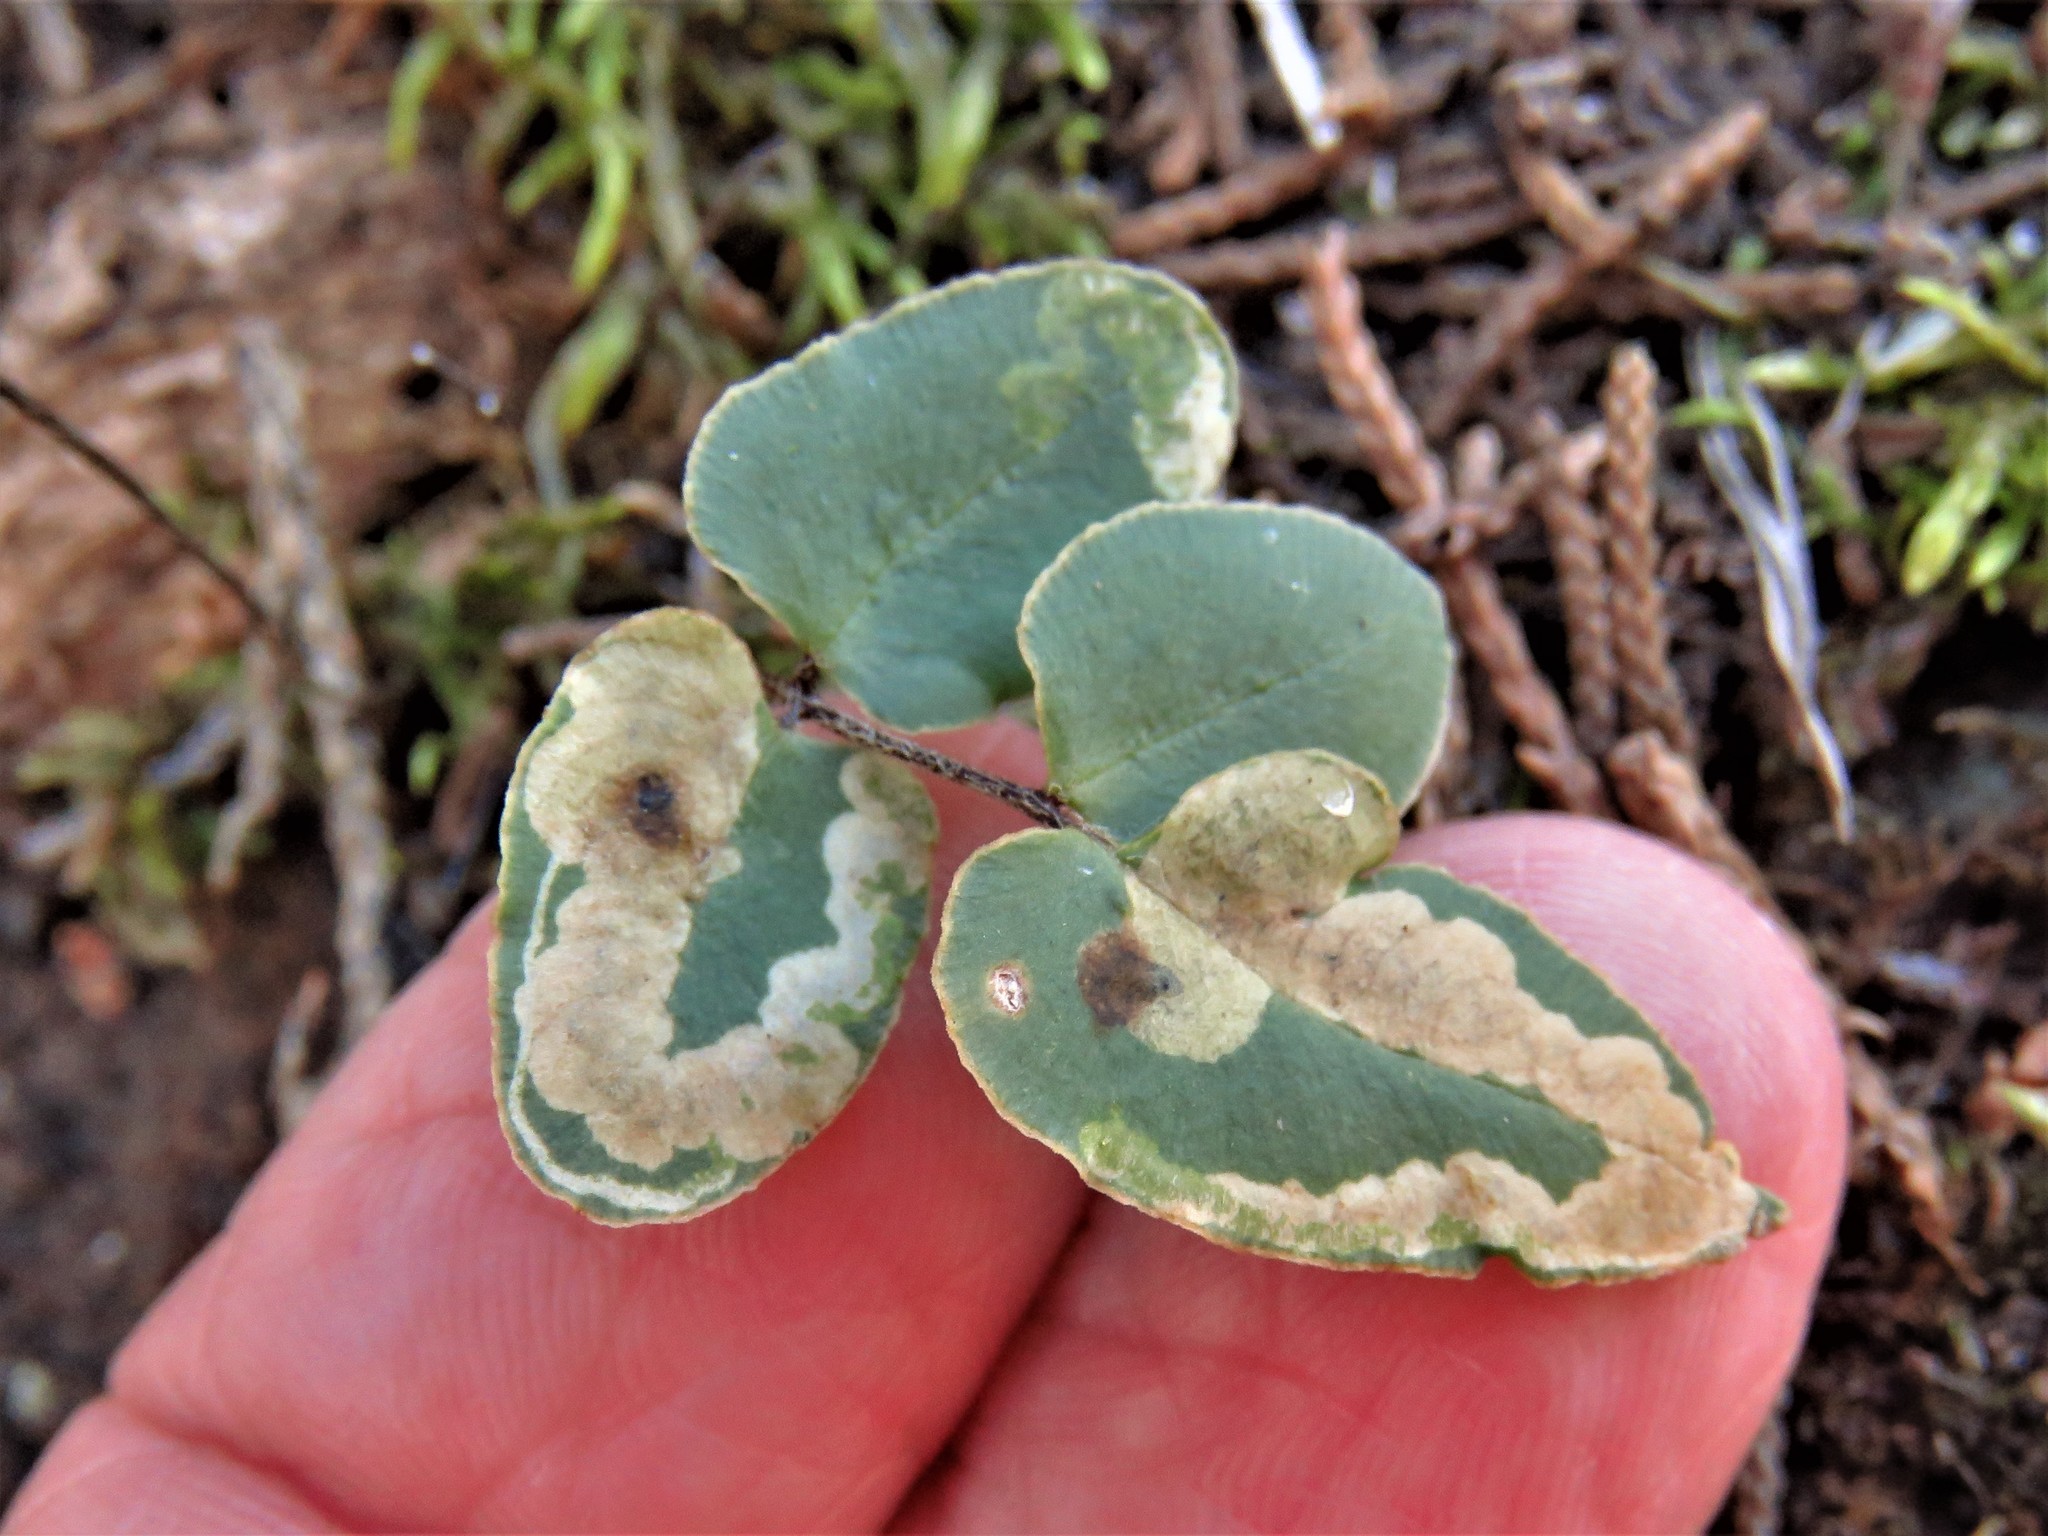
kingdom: Animalia
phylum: Arthropoda
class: Insecta
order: Diptera
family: Agromyzidae
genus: Phytoliriomyza
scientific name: Phytoliriomyza felti
